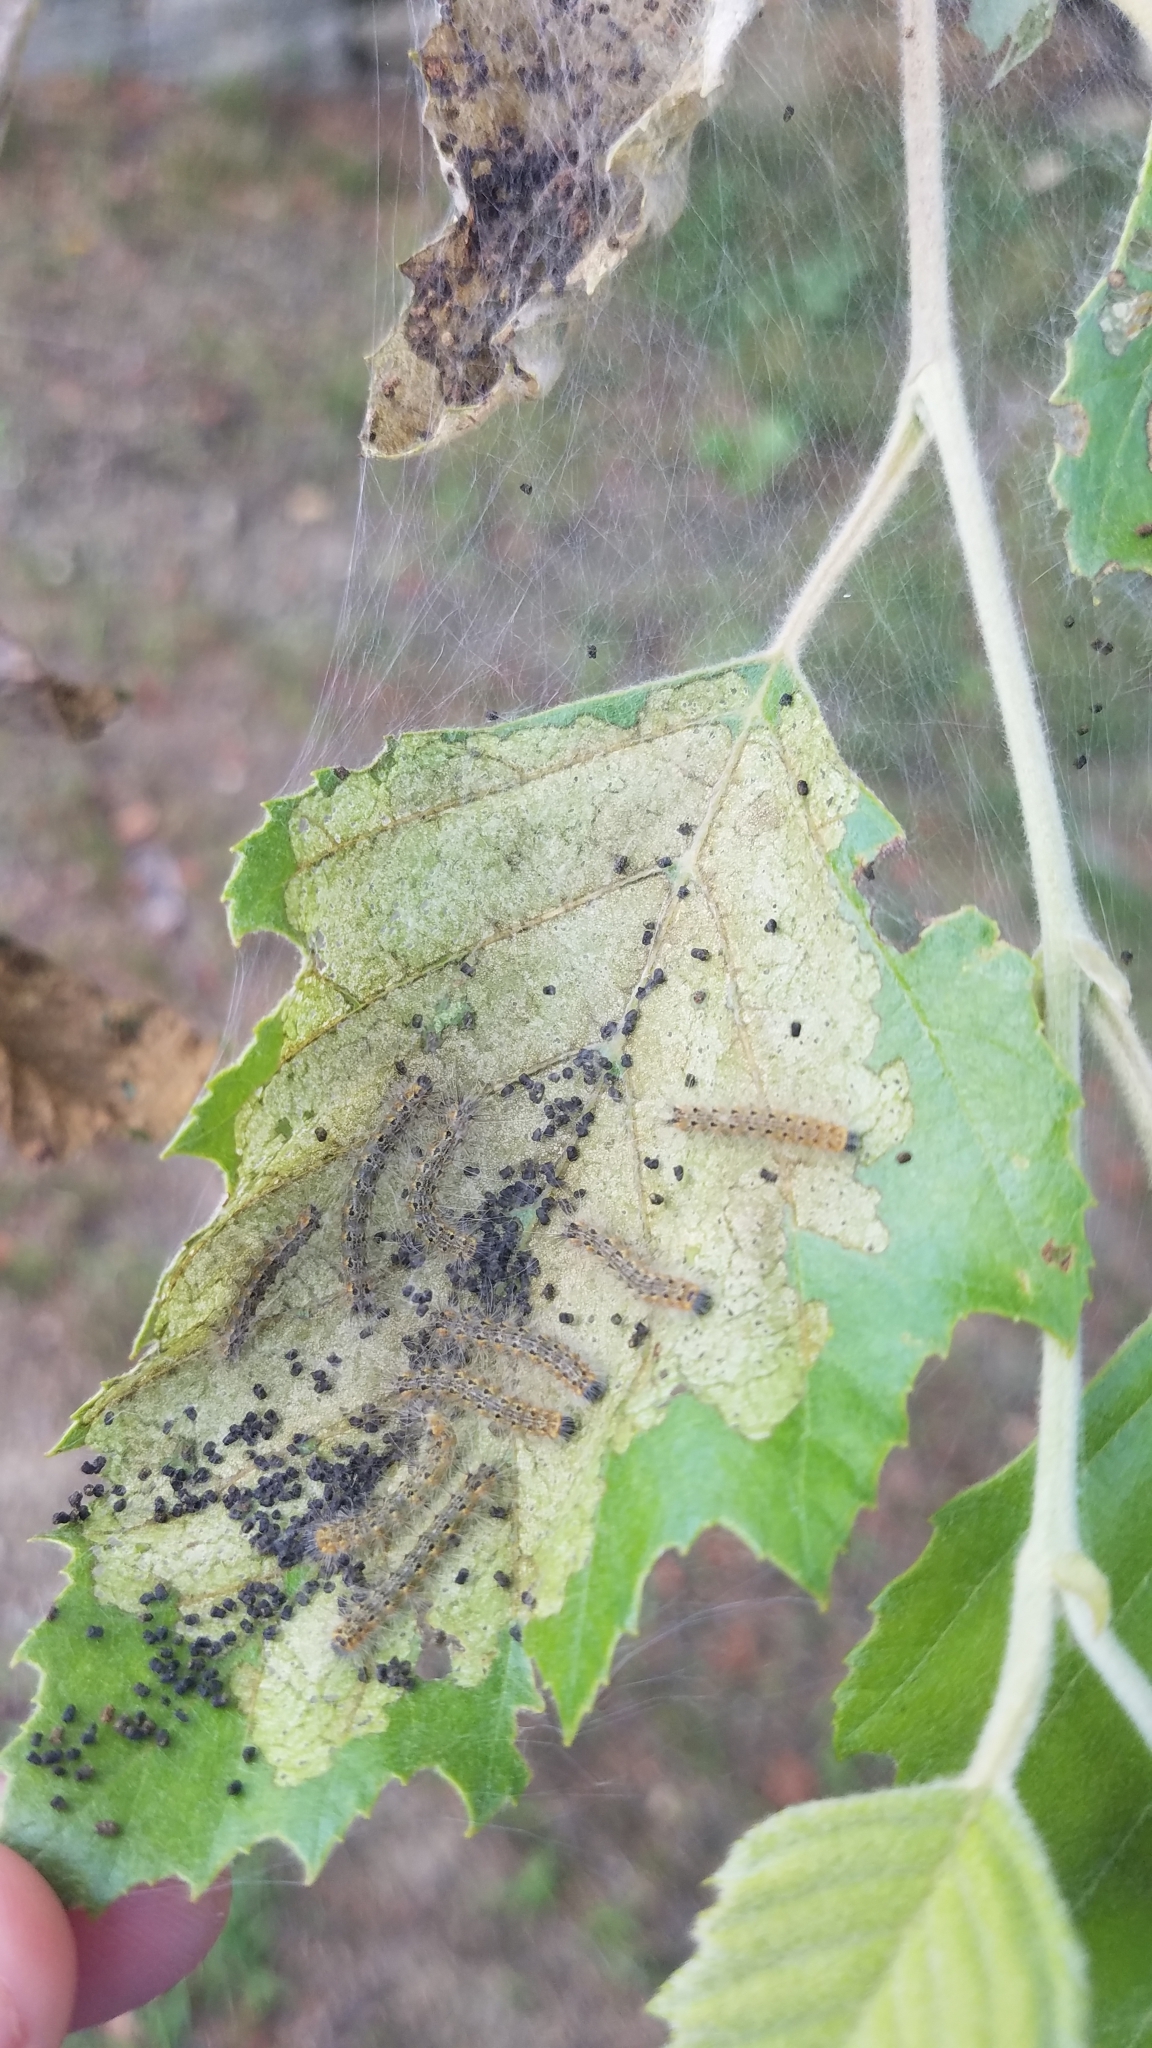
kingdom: Animalia
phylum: Arthropoda
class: Insecta
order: Lepidoptera
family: Erebidae
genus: Hyphantria
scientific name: Hyphantria cunea
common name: American white moth
